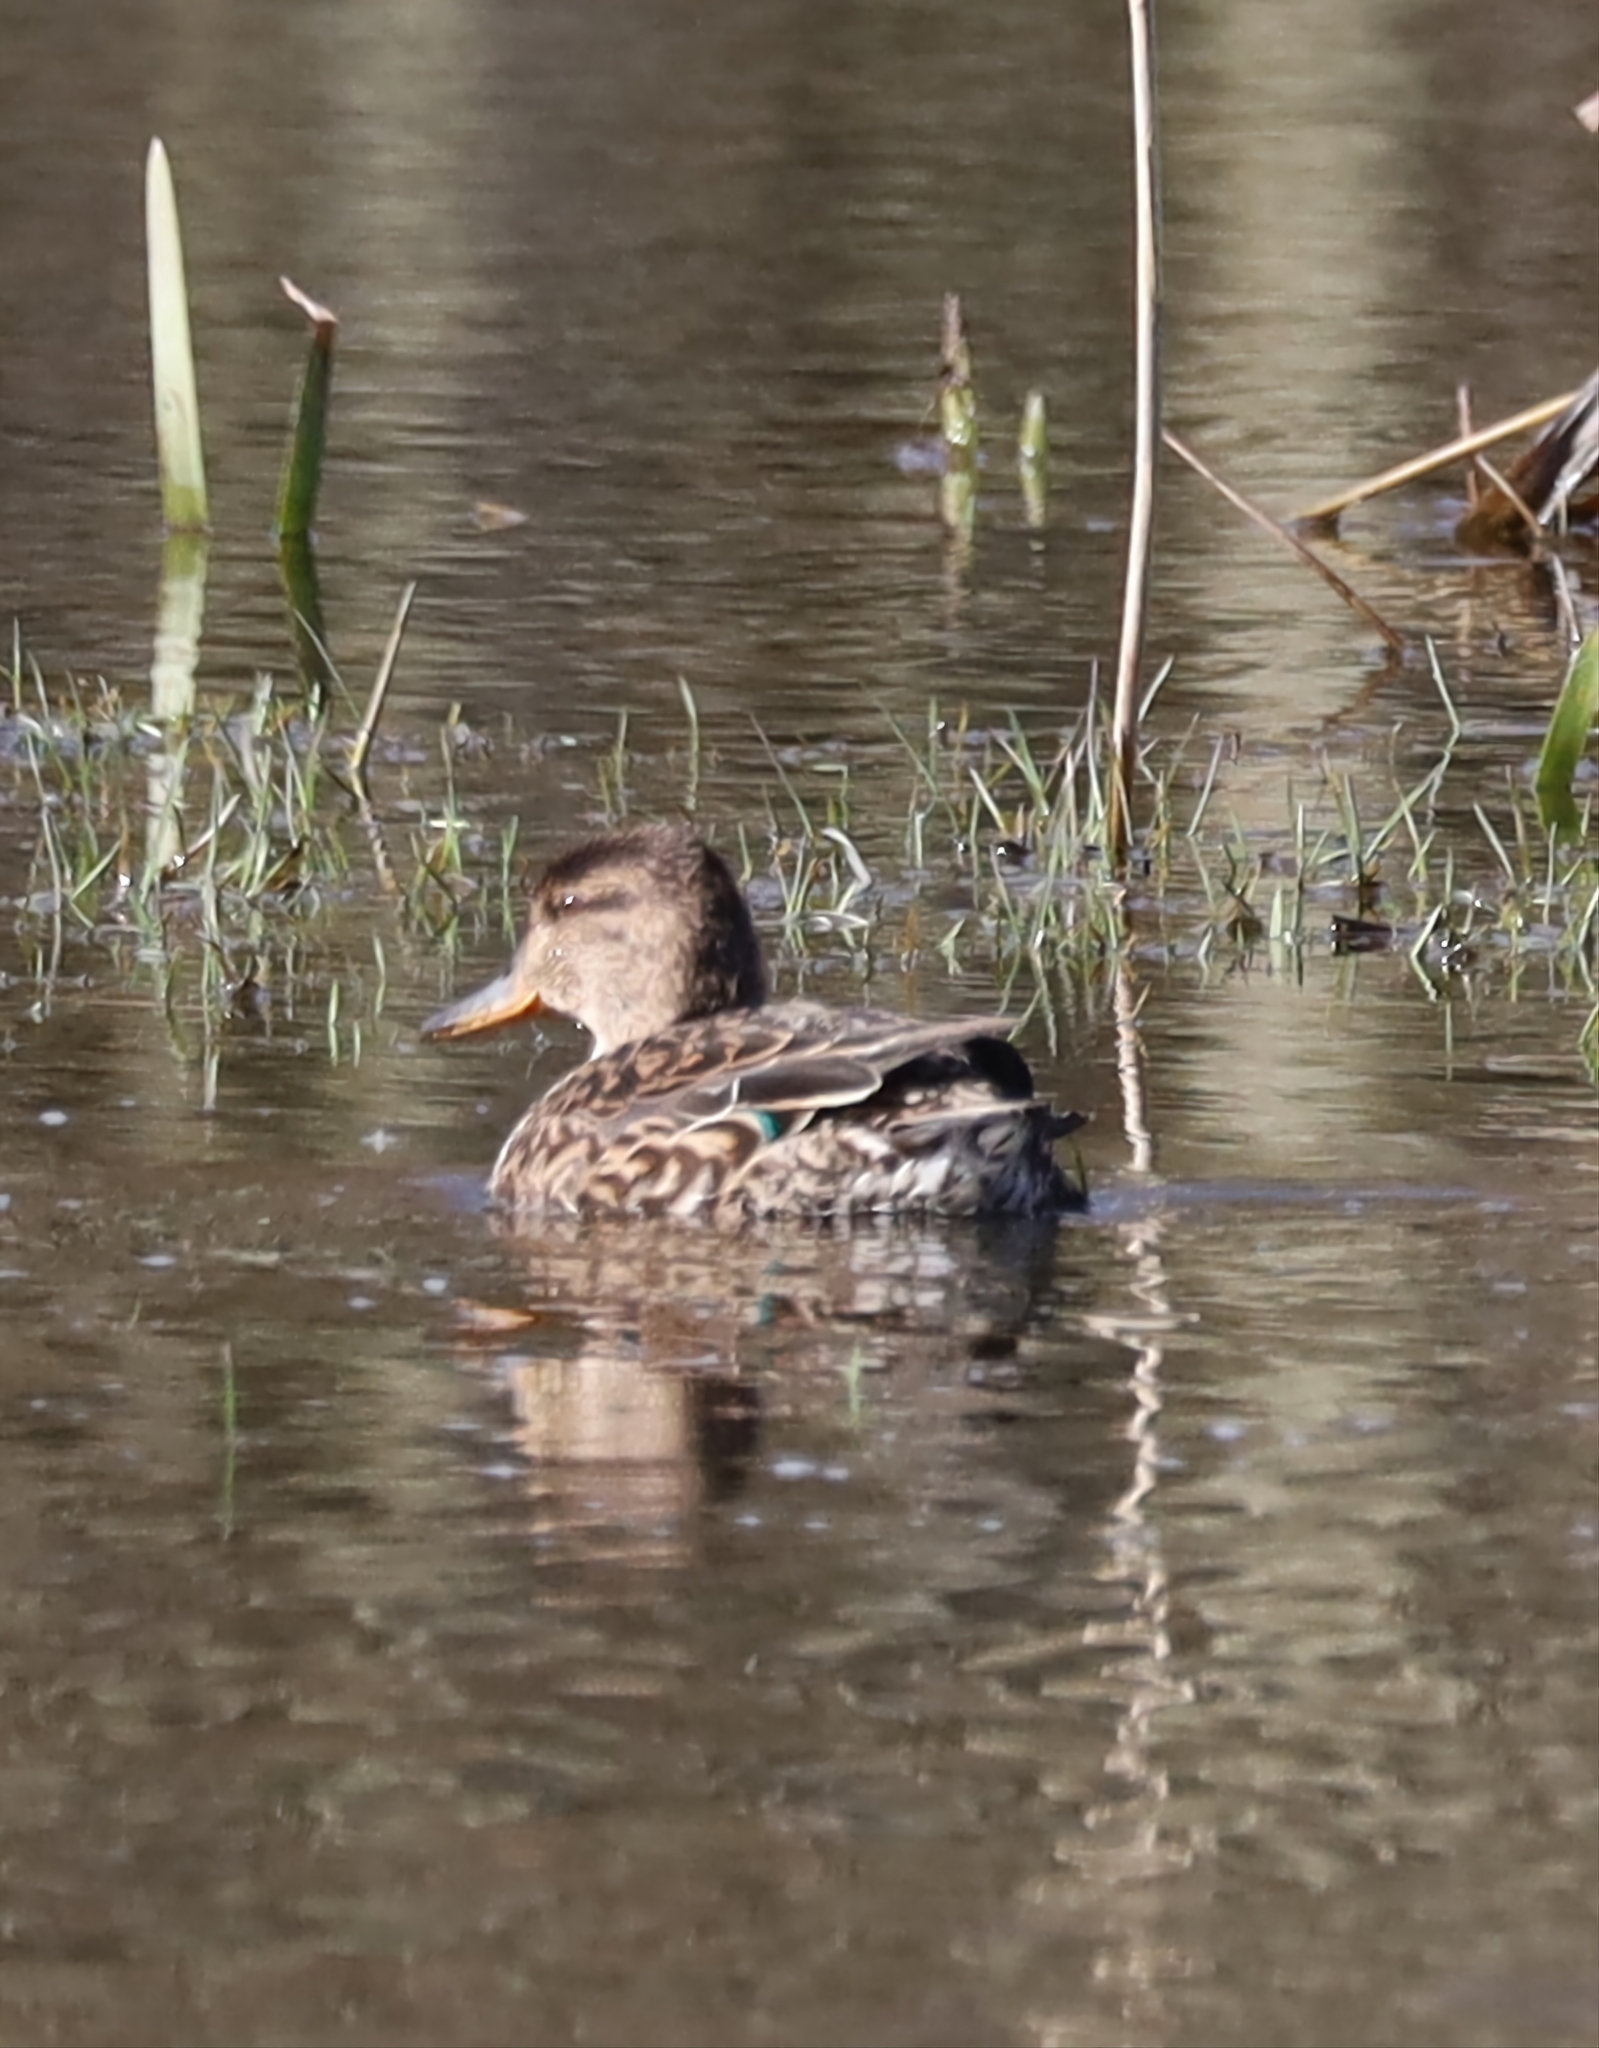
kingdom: Animalia
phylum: Chordata
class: Aves
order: Anseriformes
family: Anatidae
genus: Anas
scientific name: Anas crecca
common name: Eurasian teal
